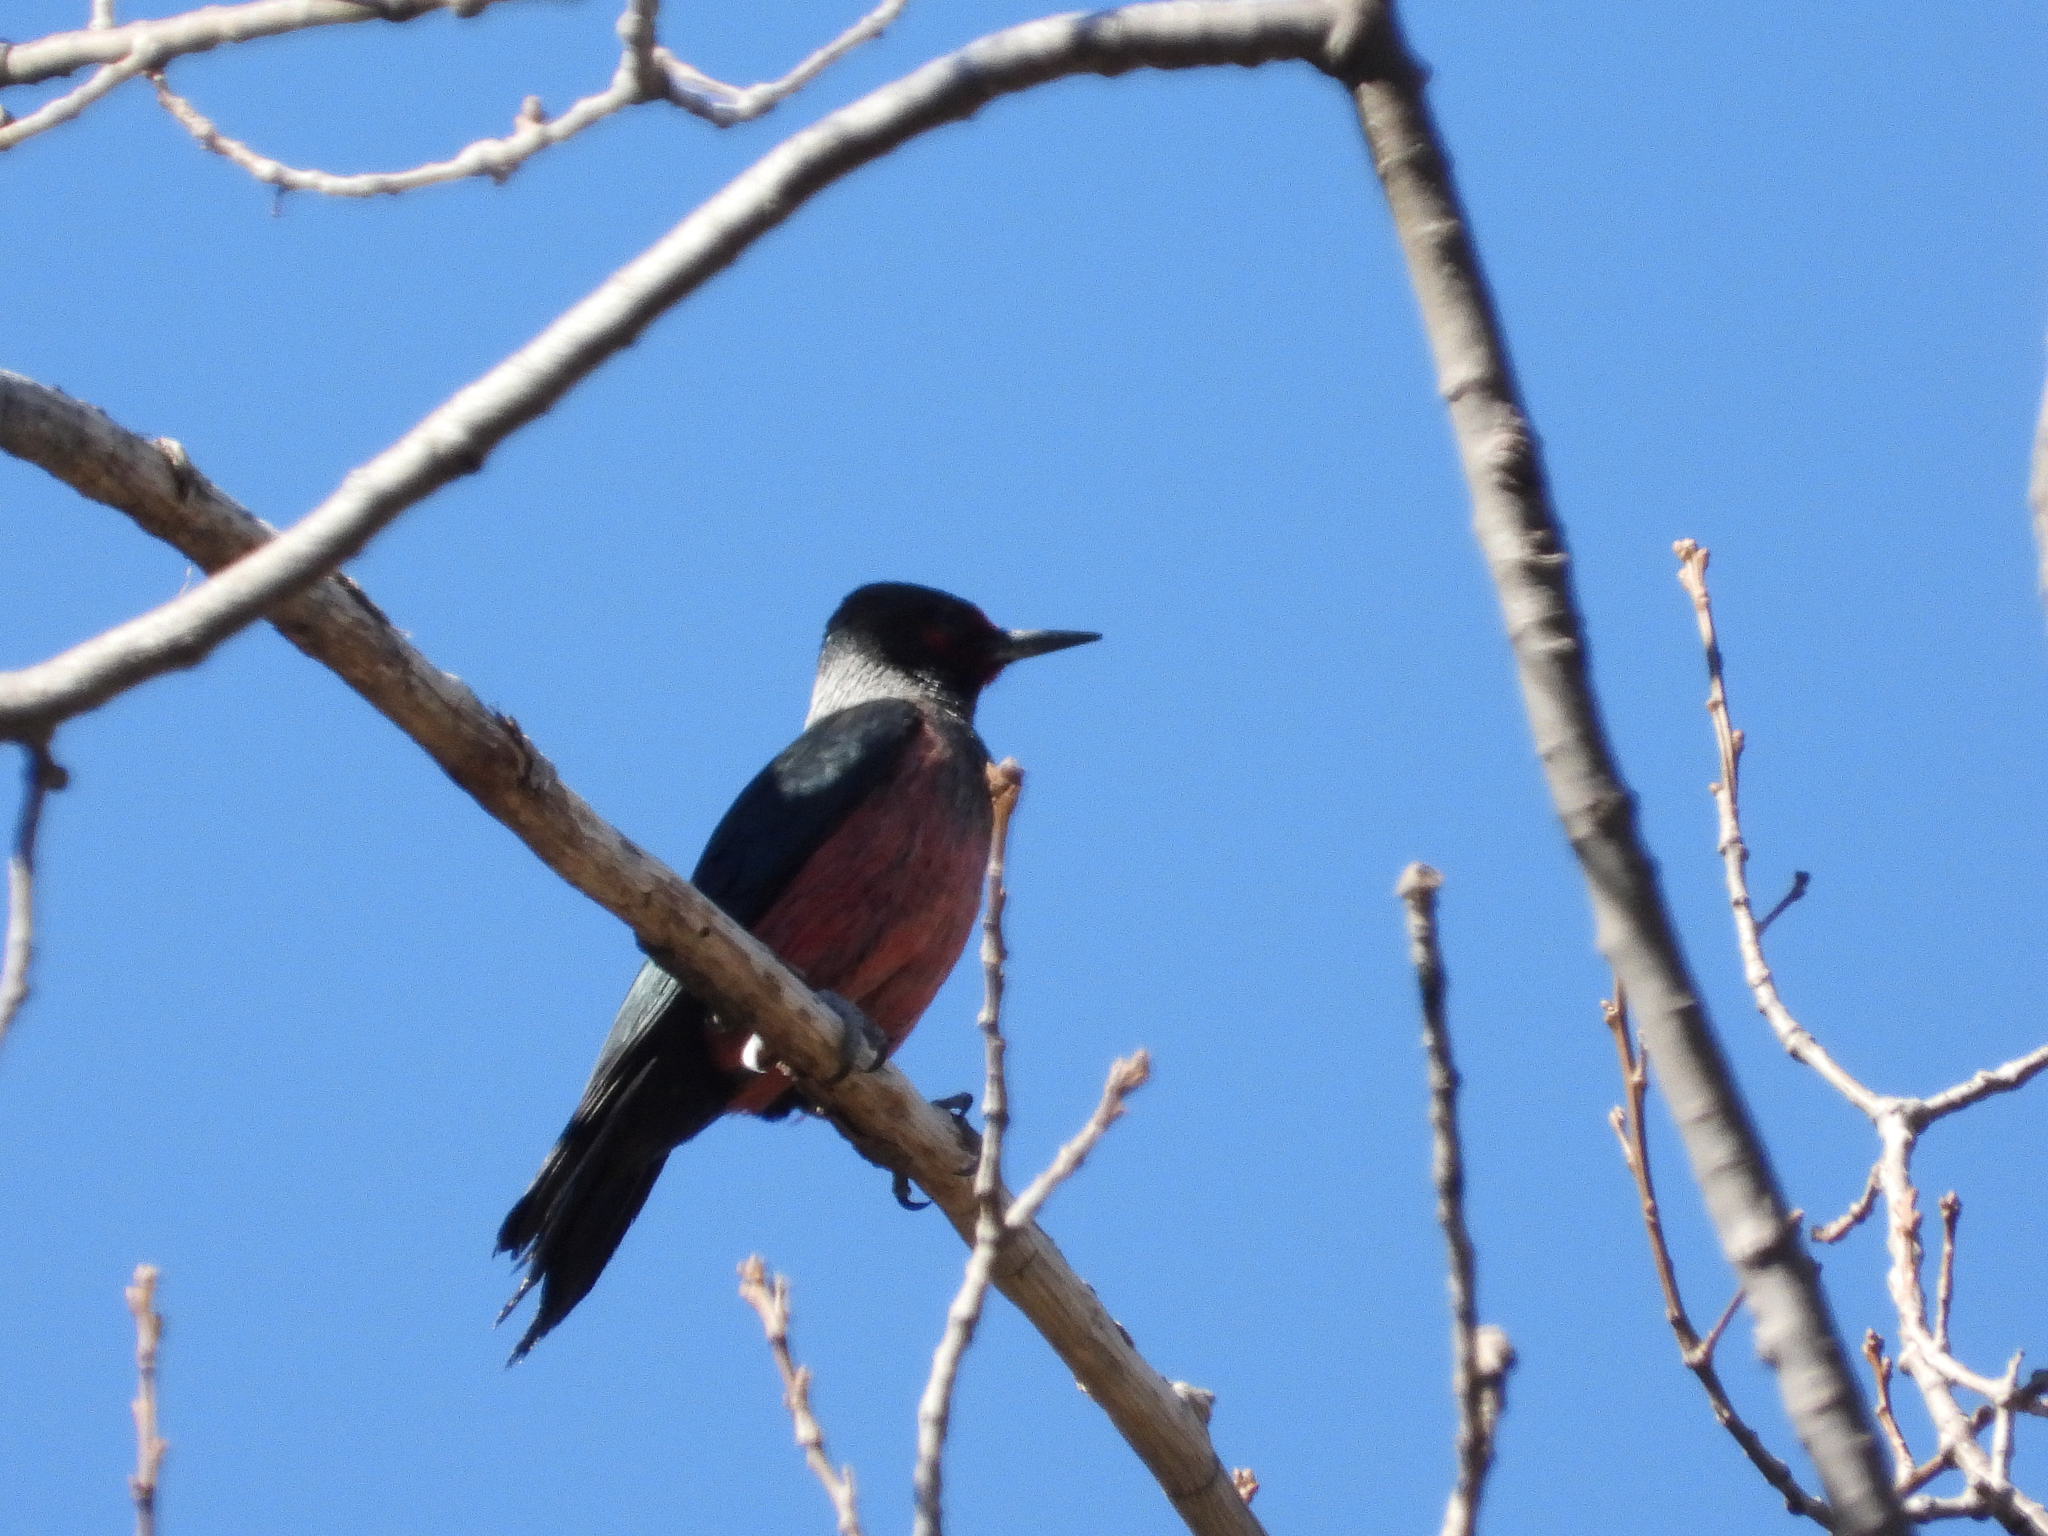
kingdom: Animalia
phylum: Chordata
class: Aves
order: Piciformes
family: Picidae
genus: Melanerpes
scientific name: Melanerpes lewis
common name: Lewis's woodpecker
